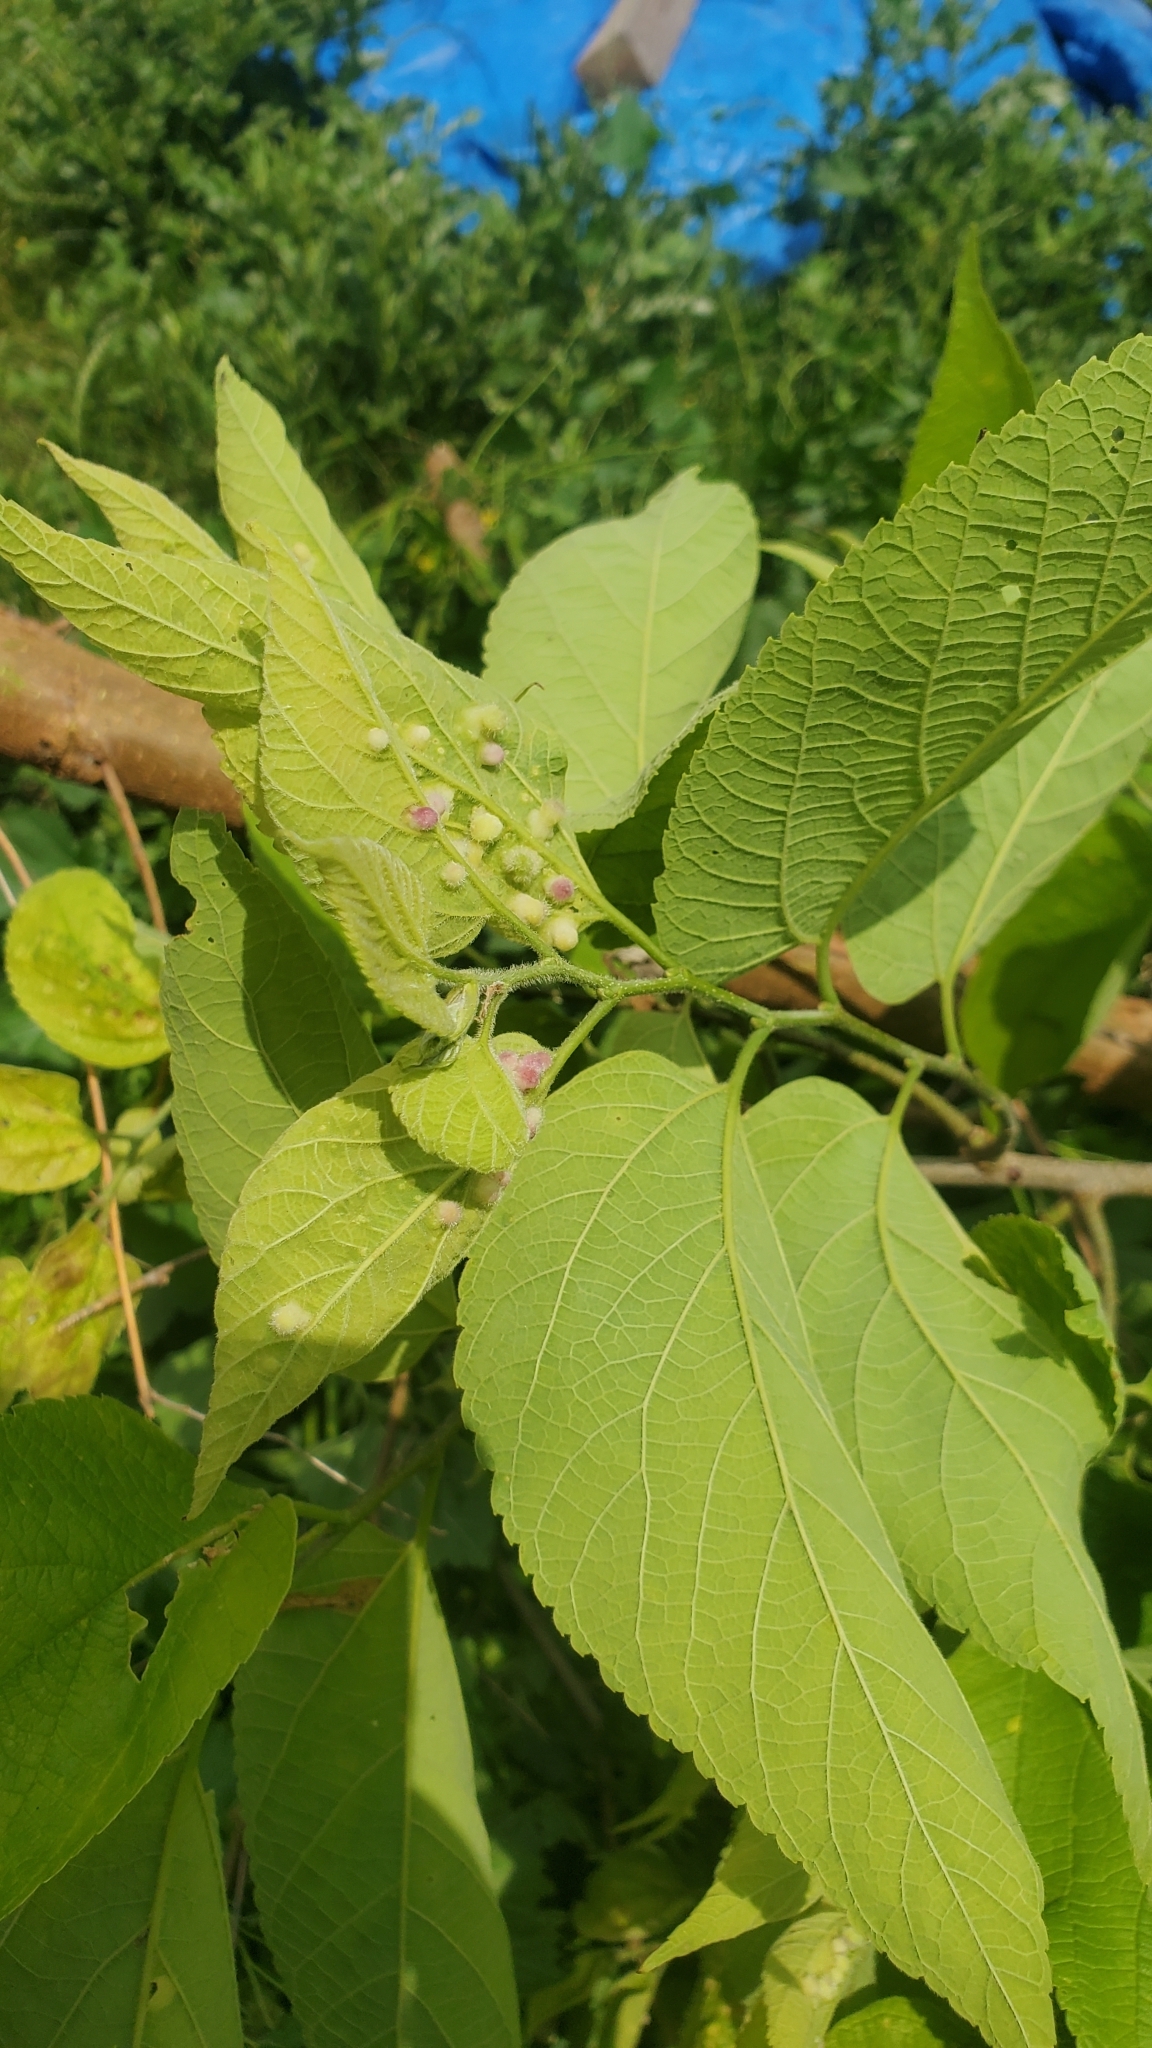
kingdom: Animalia
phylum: Arthropoda
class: Insecta
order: Hemiptera
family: Aphalaridae
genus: Pachypsylla
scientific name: Pachypsylla celtidismamma
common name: Hackberry nipplegall psyllid
